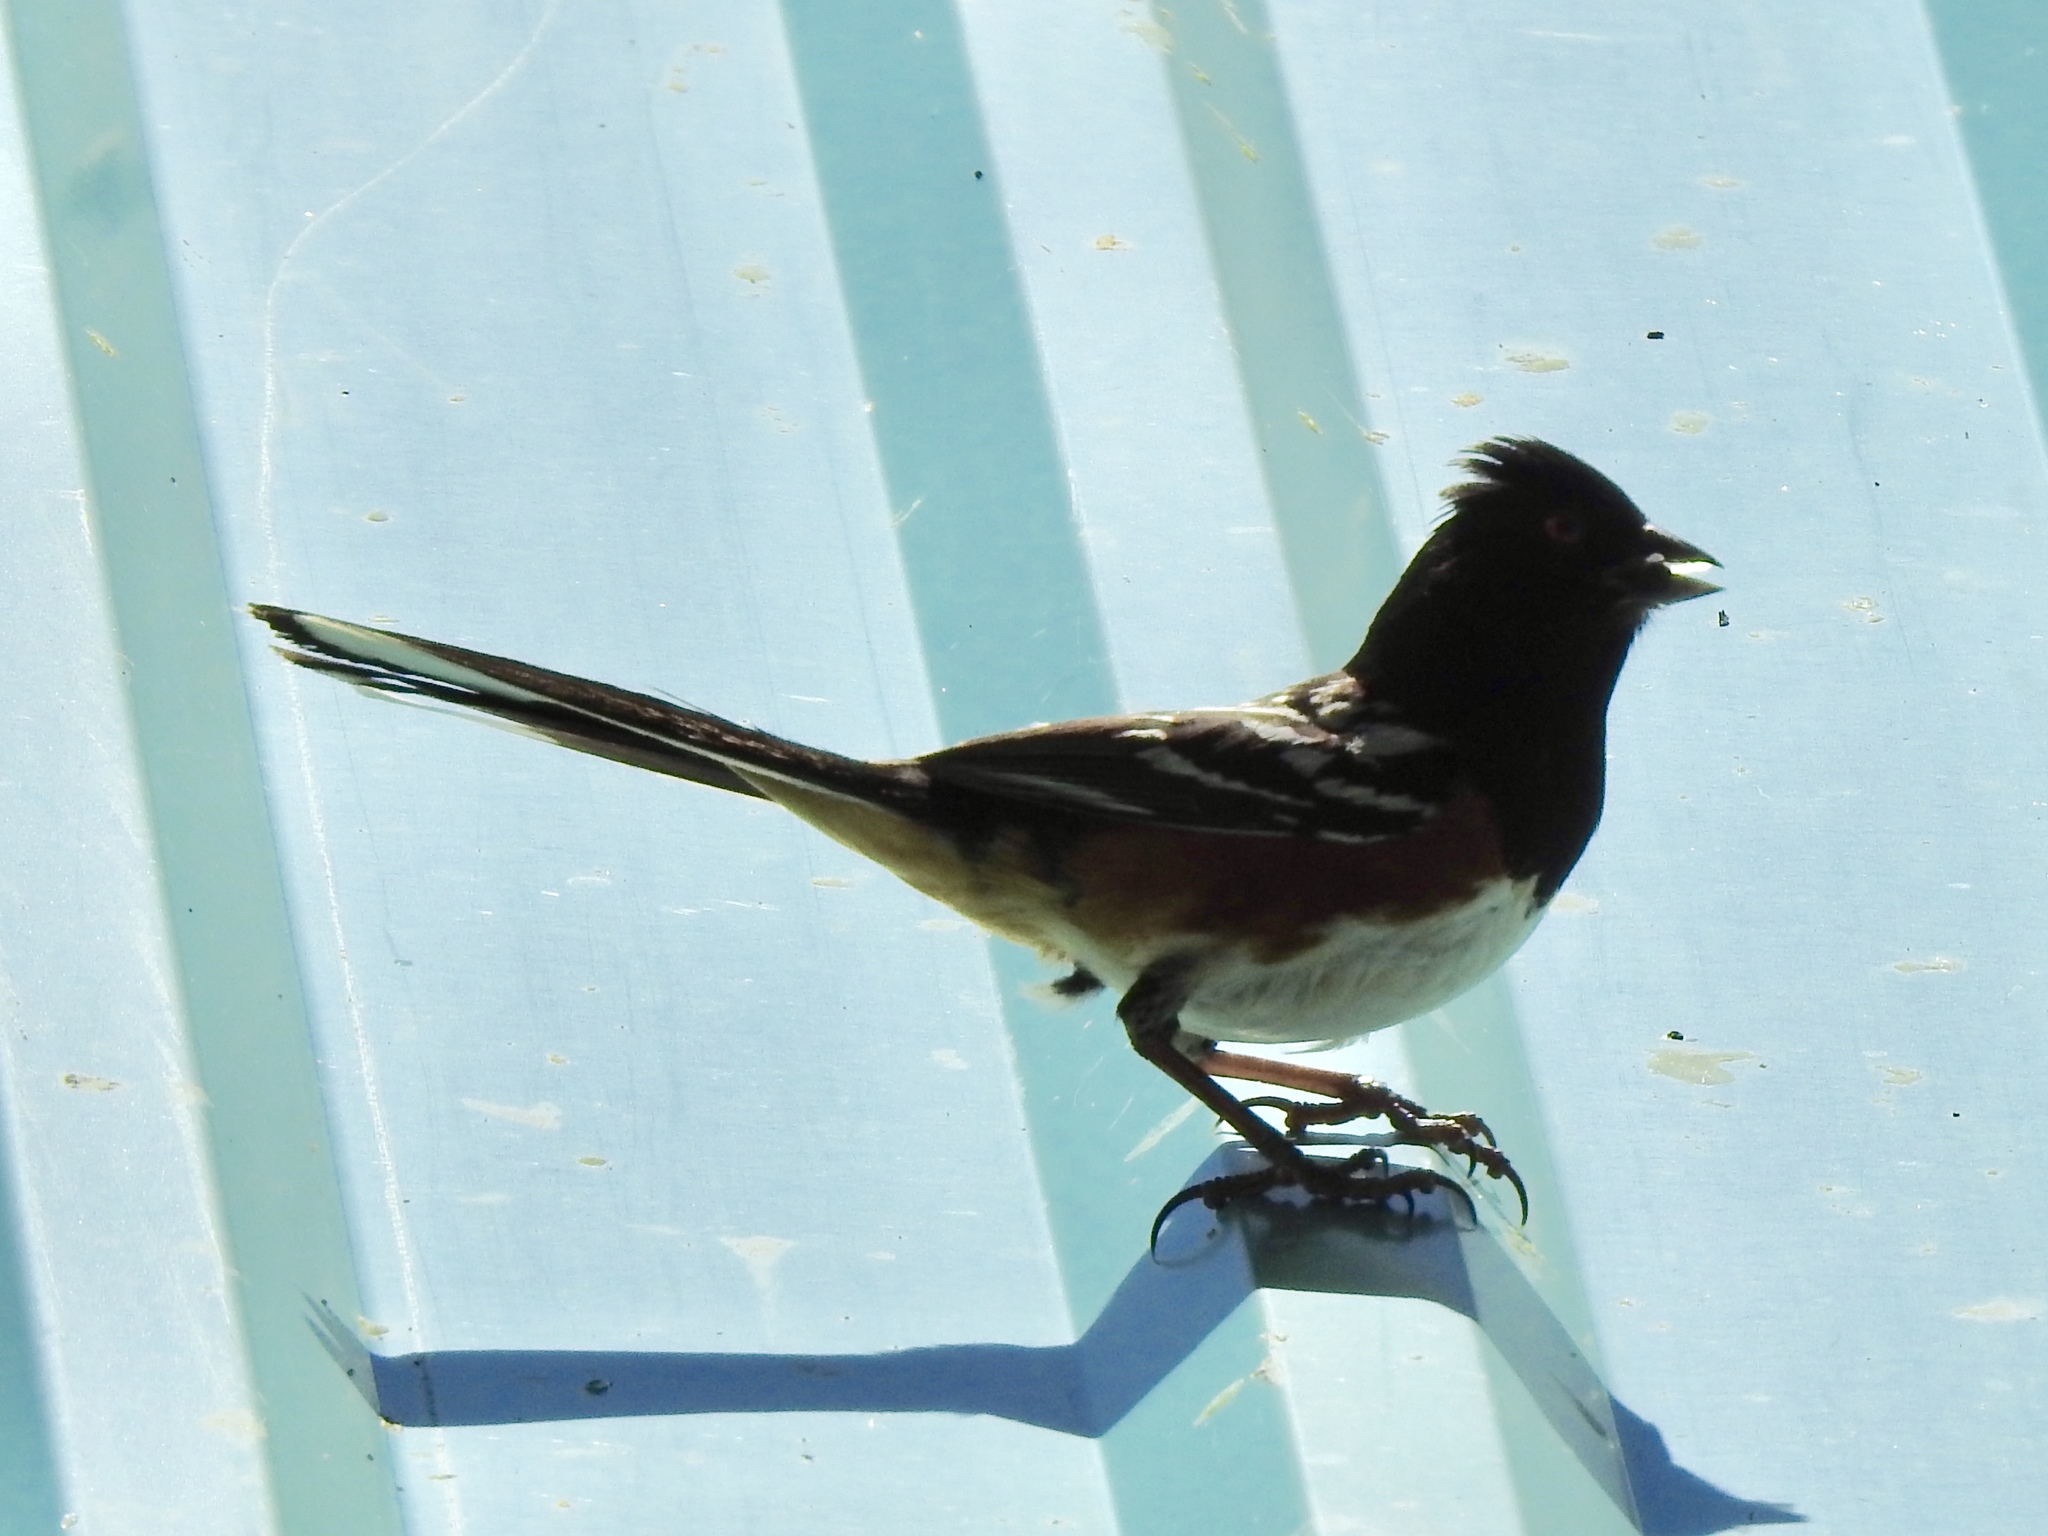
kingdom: Animalia
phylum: Chordata
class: Aves
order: Passeriformes
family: Passerellidae
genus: Pipilo
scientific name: Pipilo maculatus
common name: Spotted towhee
